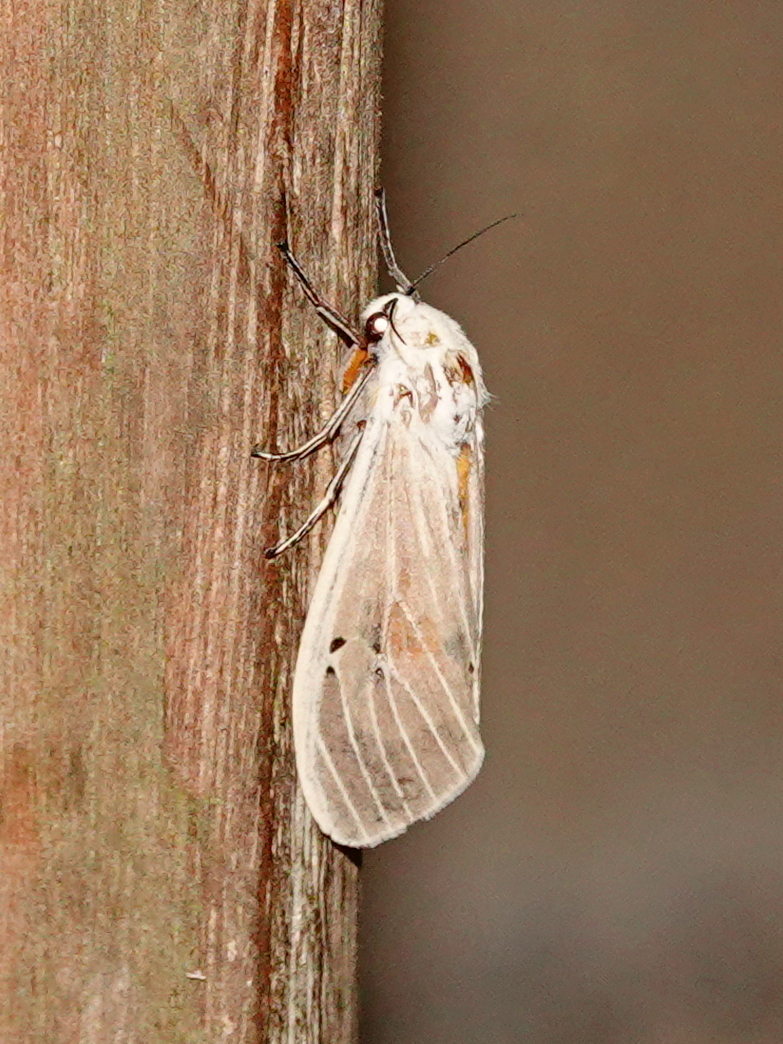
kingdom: Animalia
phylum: Arthropoda
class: Insecta
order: Lepidoptera
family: Erebidae
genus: Creatonotos
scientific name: Creatonotos transiens
